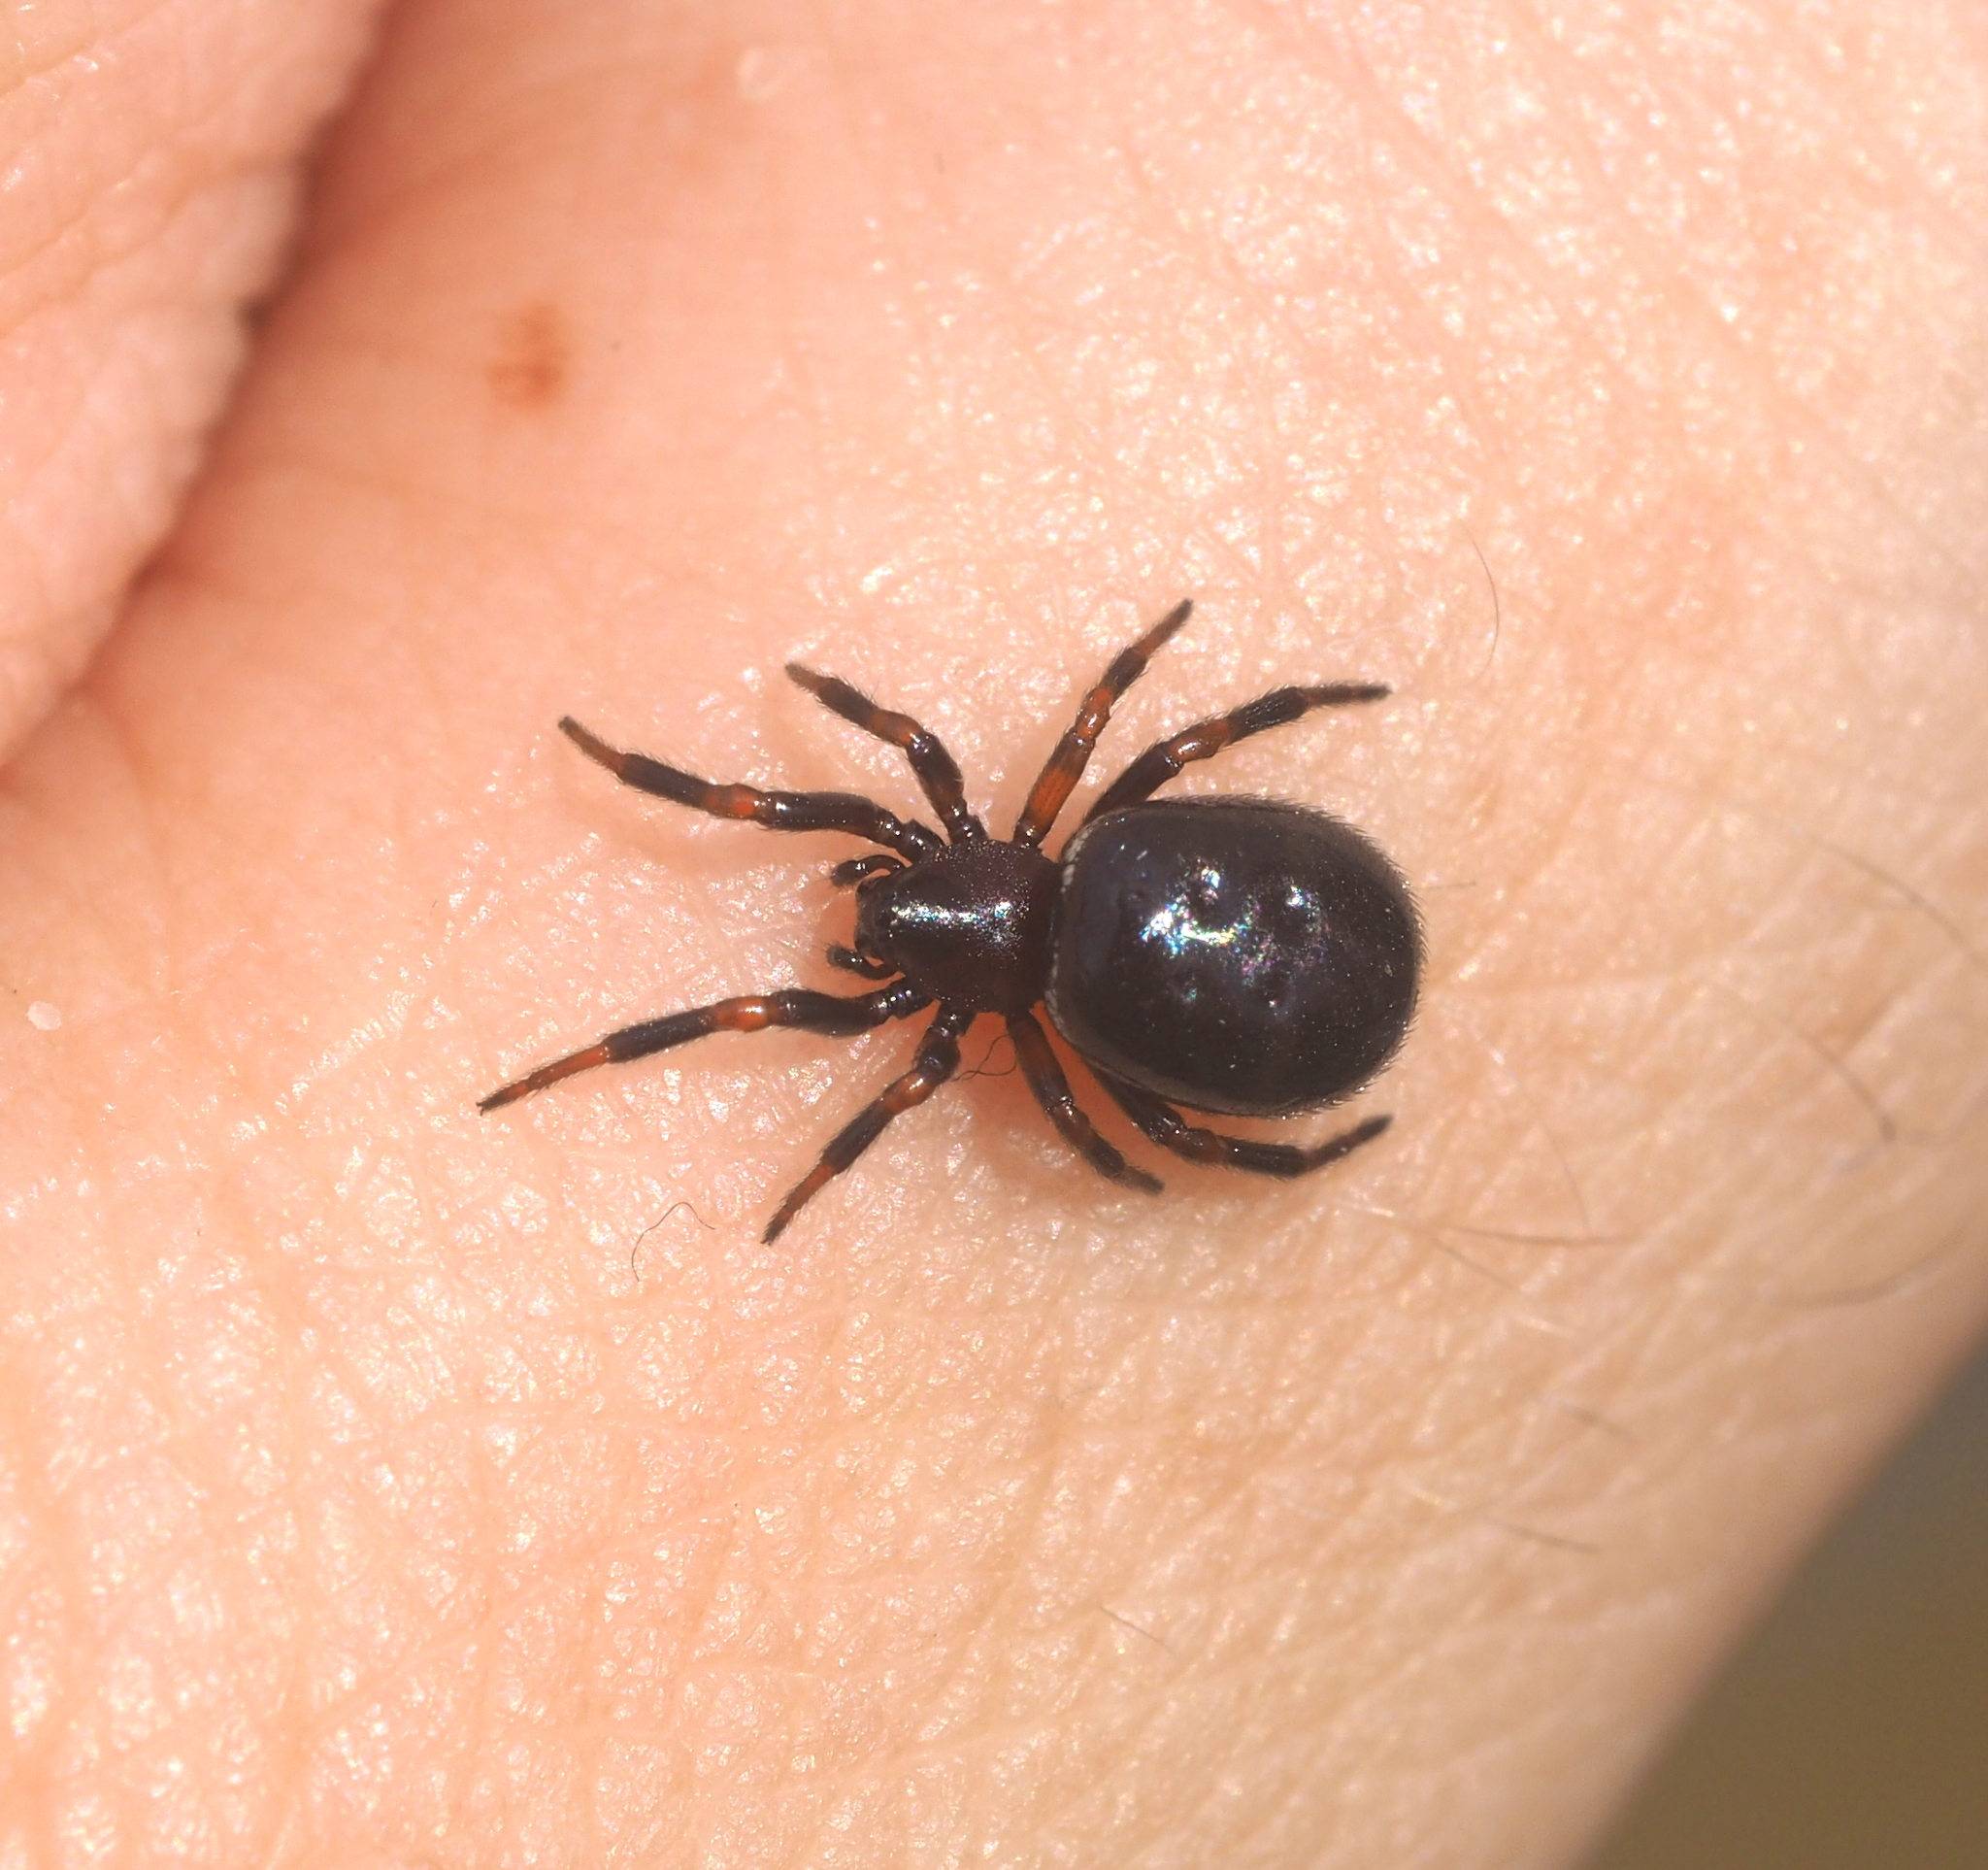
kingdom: Animalia
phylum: Arthropoda
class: Arachnida
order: Araneae
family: Theridiidae
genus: Asagena
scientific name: Asagena phalerata
